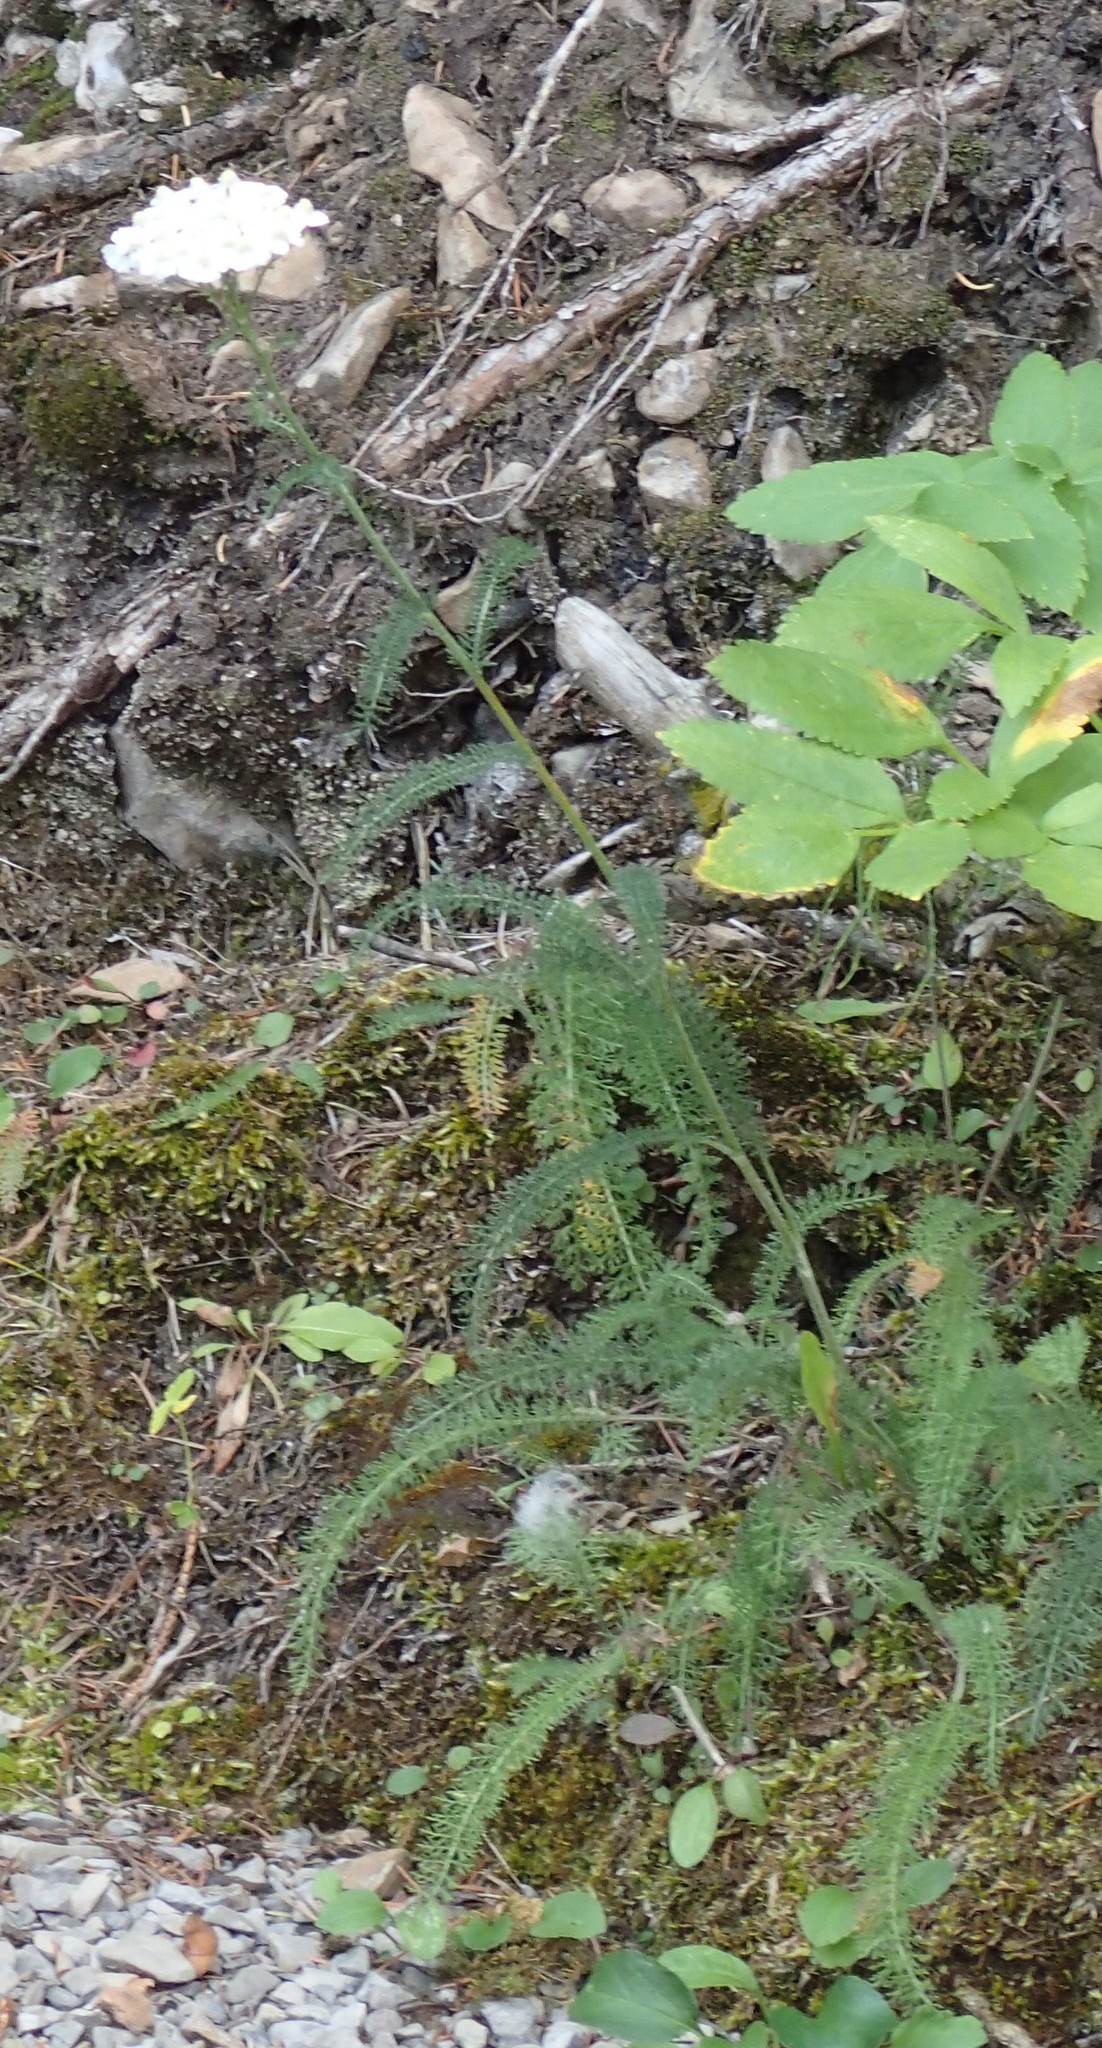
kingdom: Plantae
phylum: Tracheophyta
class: Magnoliopsida
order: Asterales
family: Asteraceae
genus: Achillea
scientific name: Achillea millefolium
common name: Yarrow
